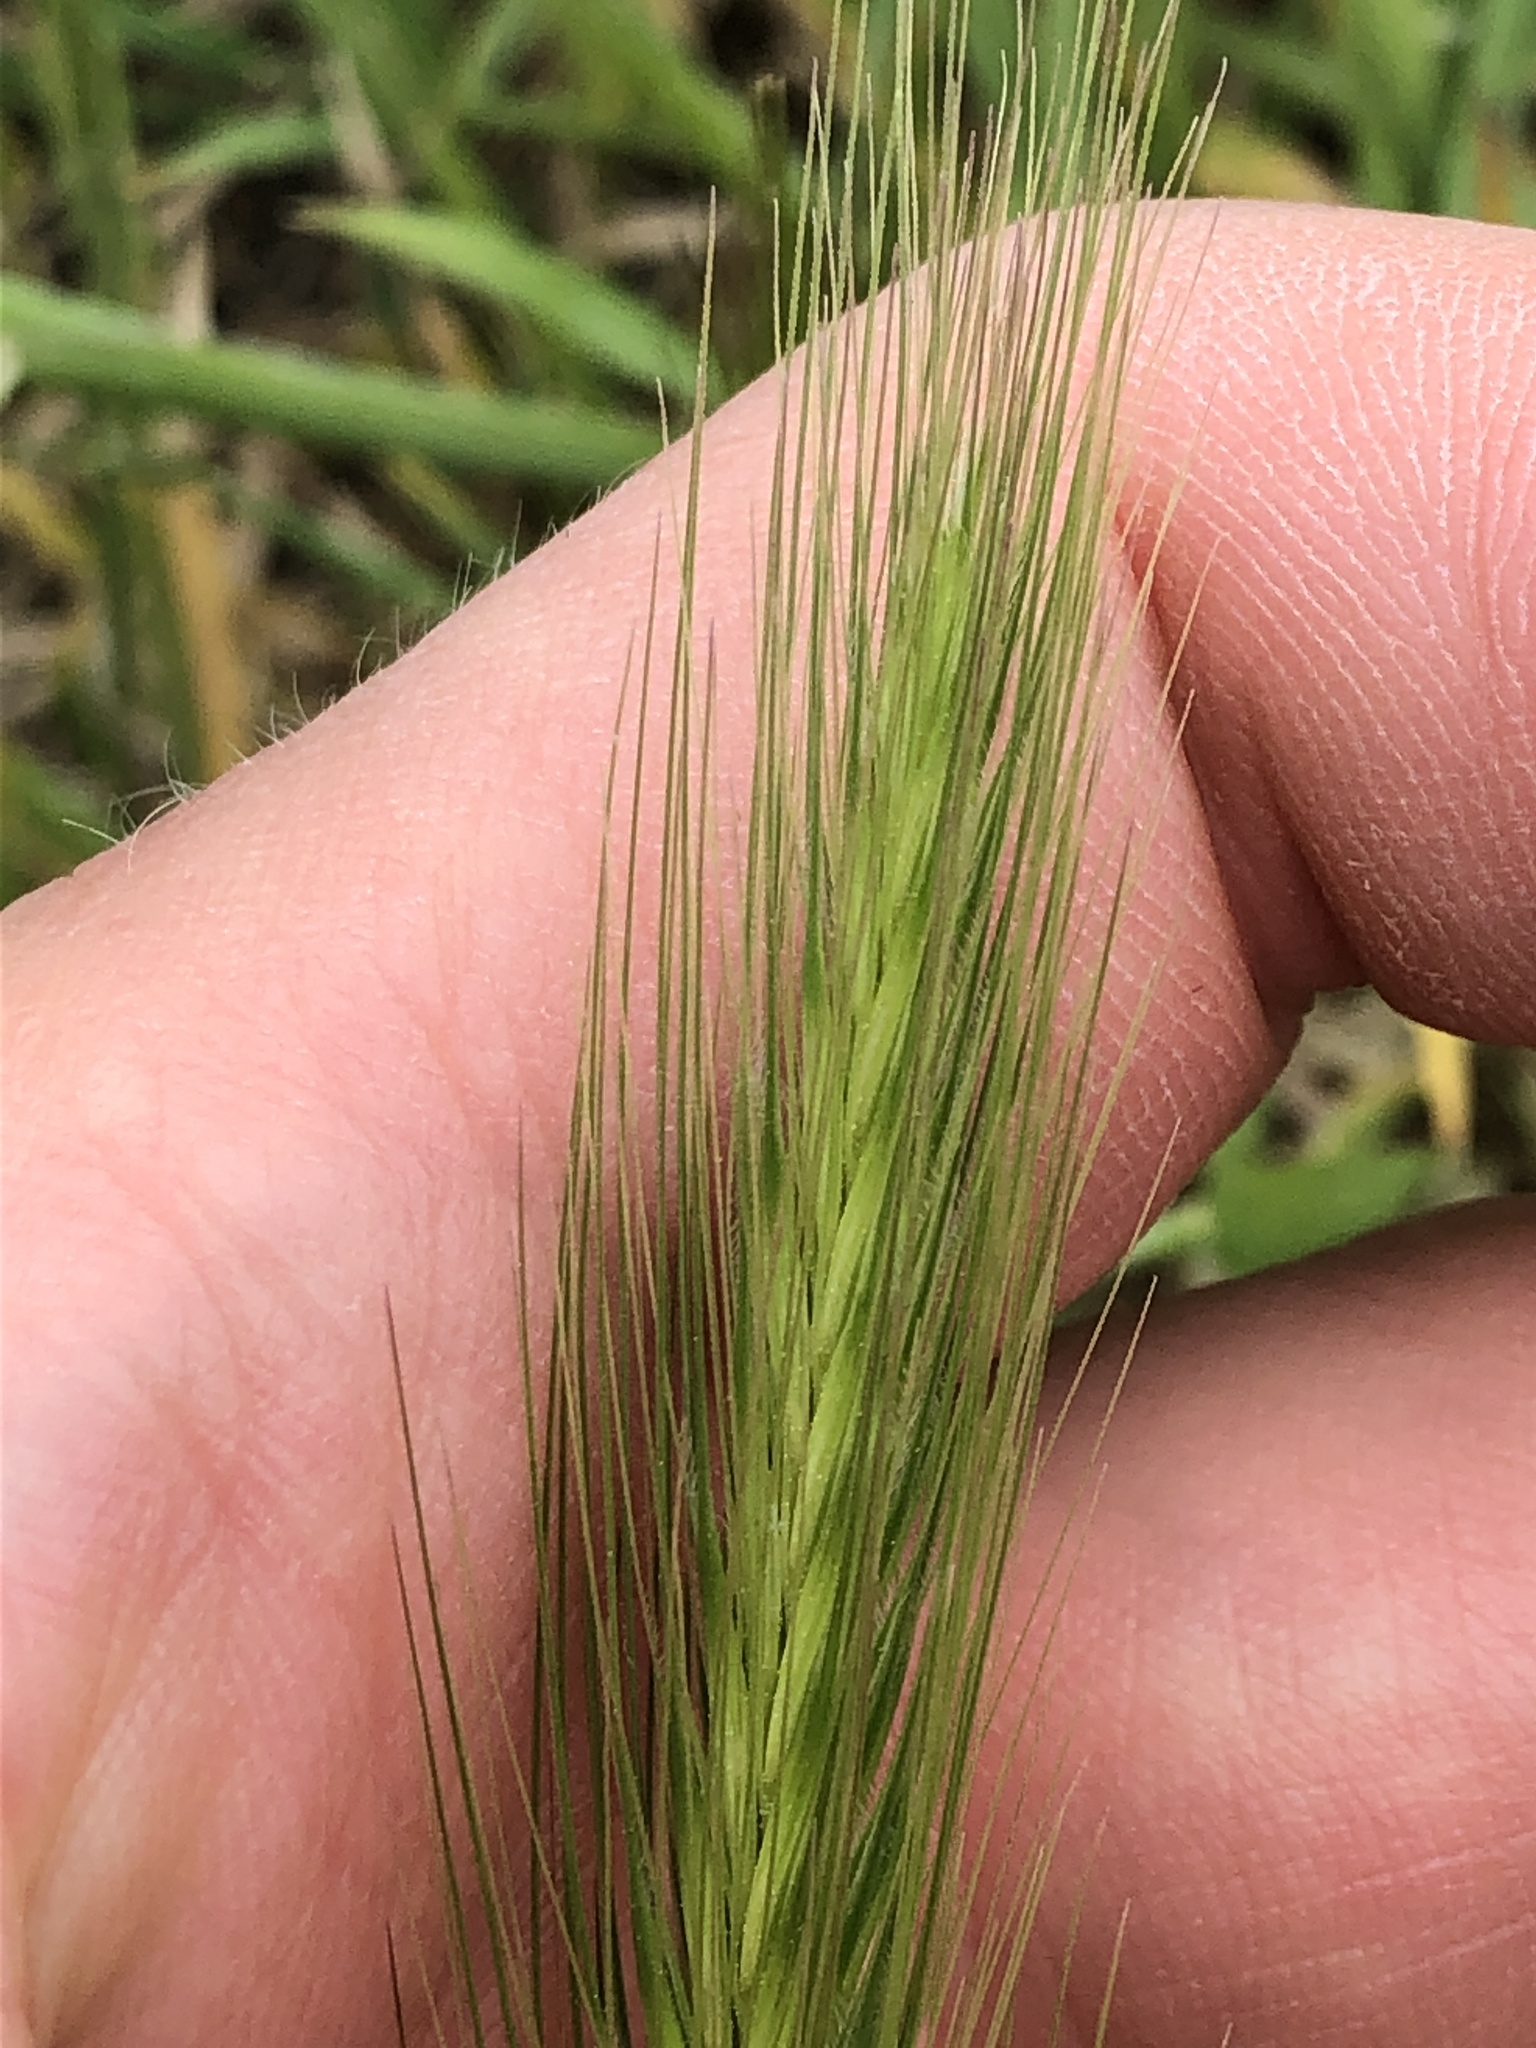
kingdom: Plantae
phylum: Tracheophyta
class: Liliopsida
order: Poales
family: Poaceae
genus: Hordeum
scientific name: Hordeum murinum
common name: Wall barley
